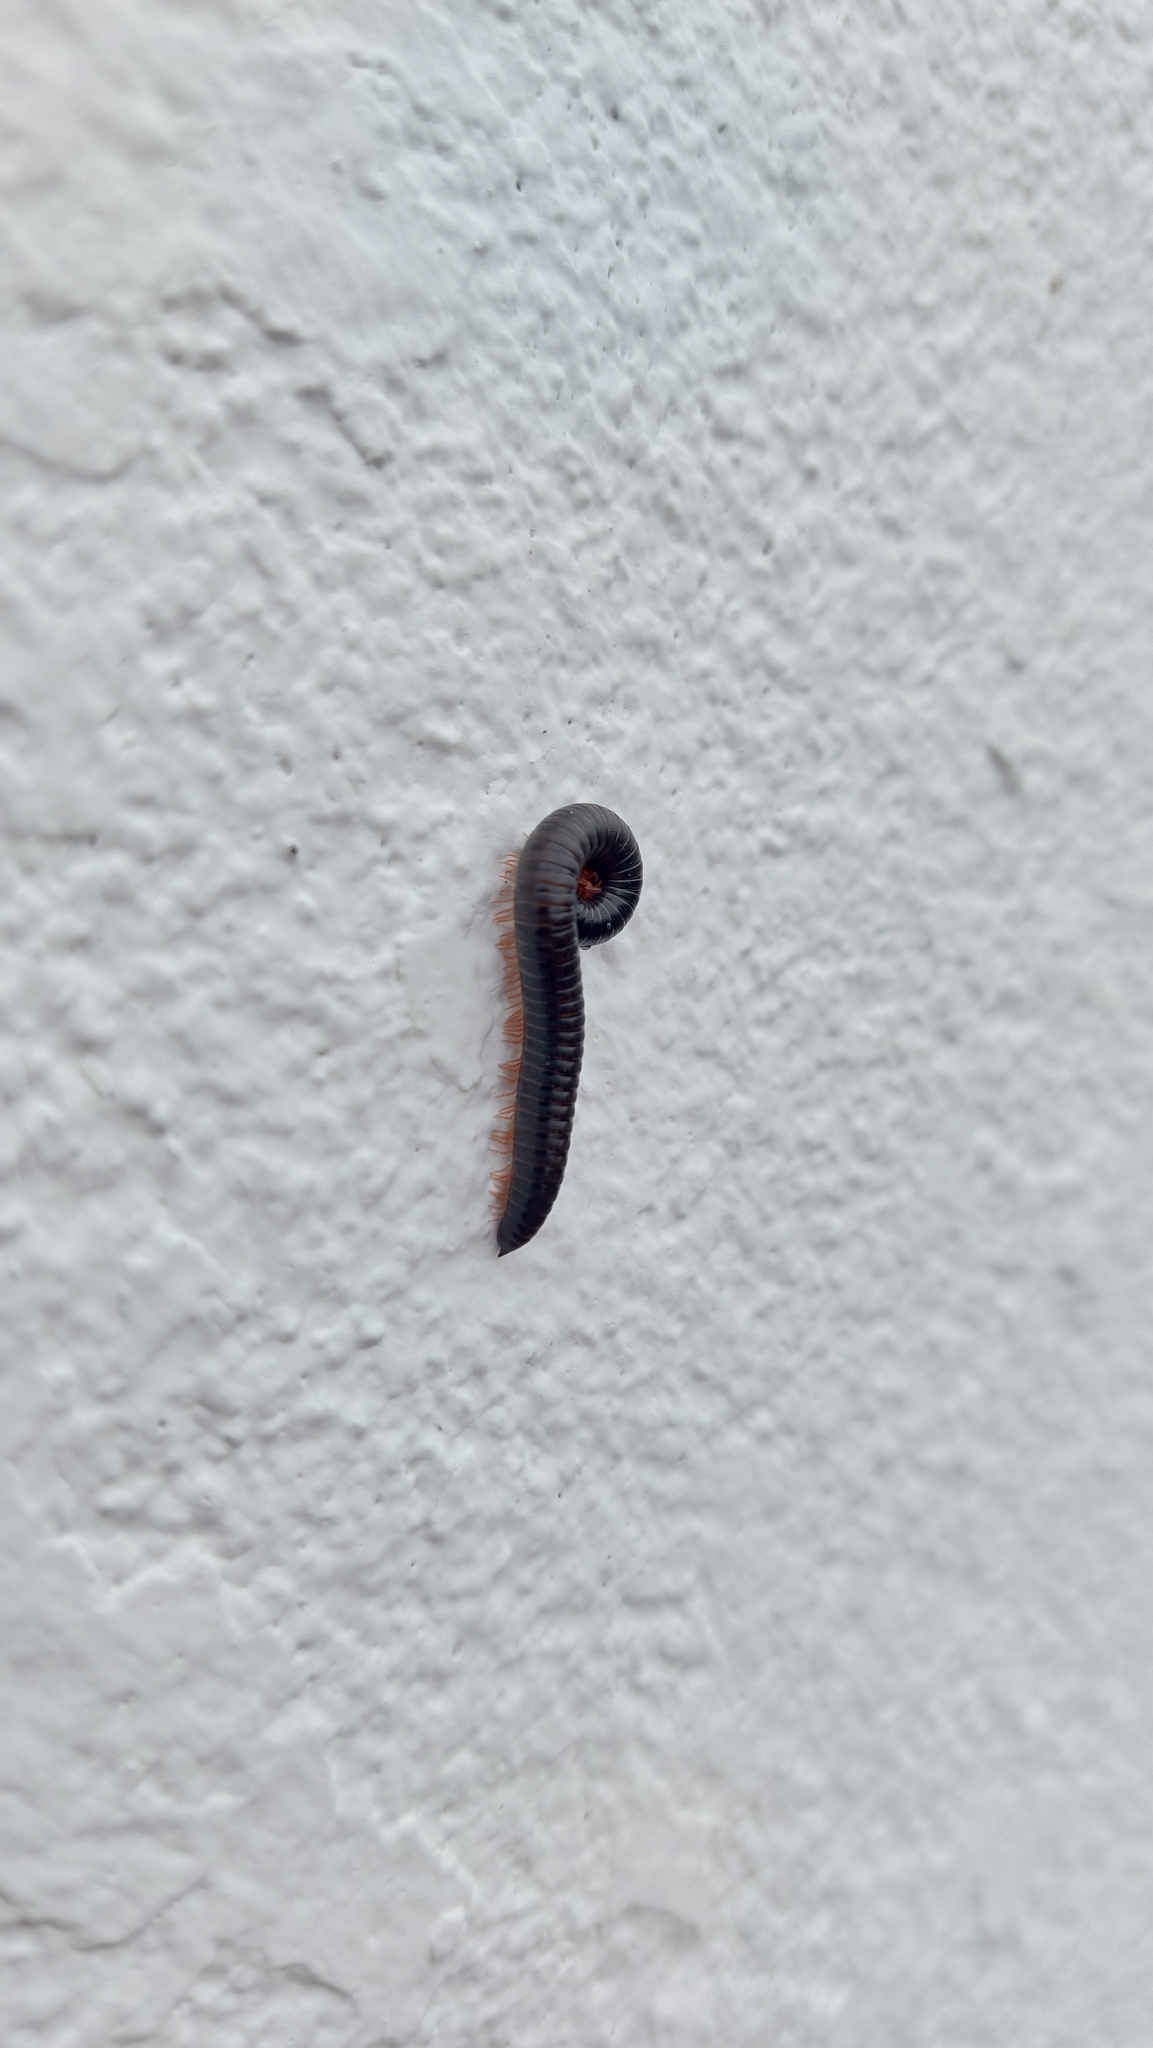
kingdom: Animalia
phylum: Arthropoda
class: Diplopoda
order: Julida
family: Julidae
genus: Ommatoiulus
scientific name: Ommatoiulus moreleti
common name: Portuguese millipede
